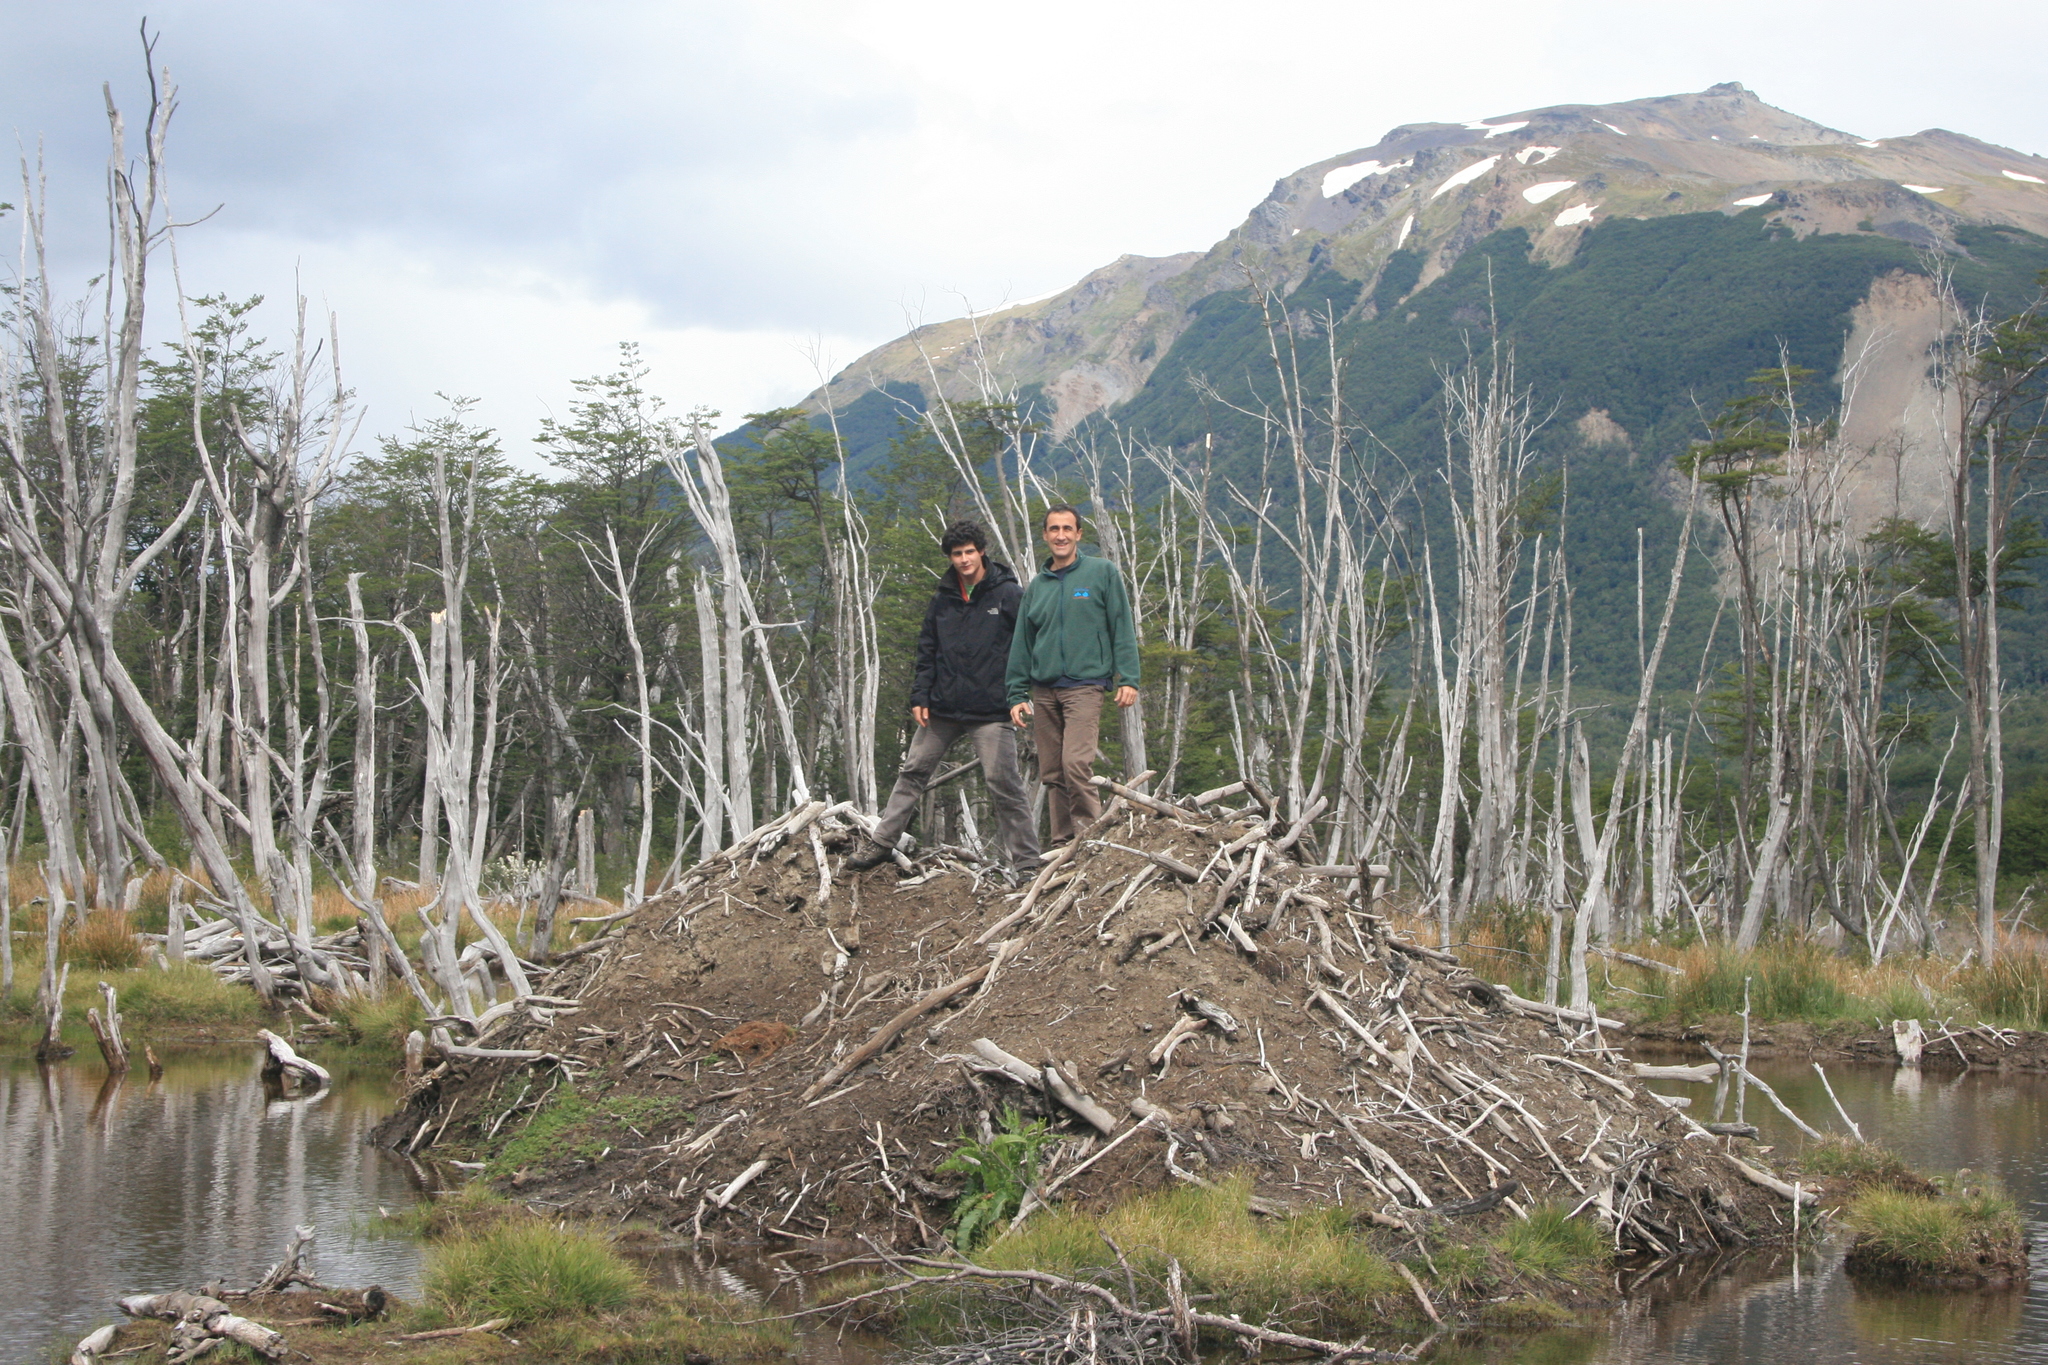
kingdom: Animalia
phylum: Chordata
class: Mammalia
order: Rodentia
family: Castoridae
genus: Castor
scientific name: Castor canadensis
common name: American beaver
